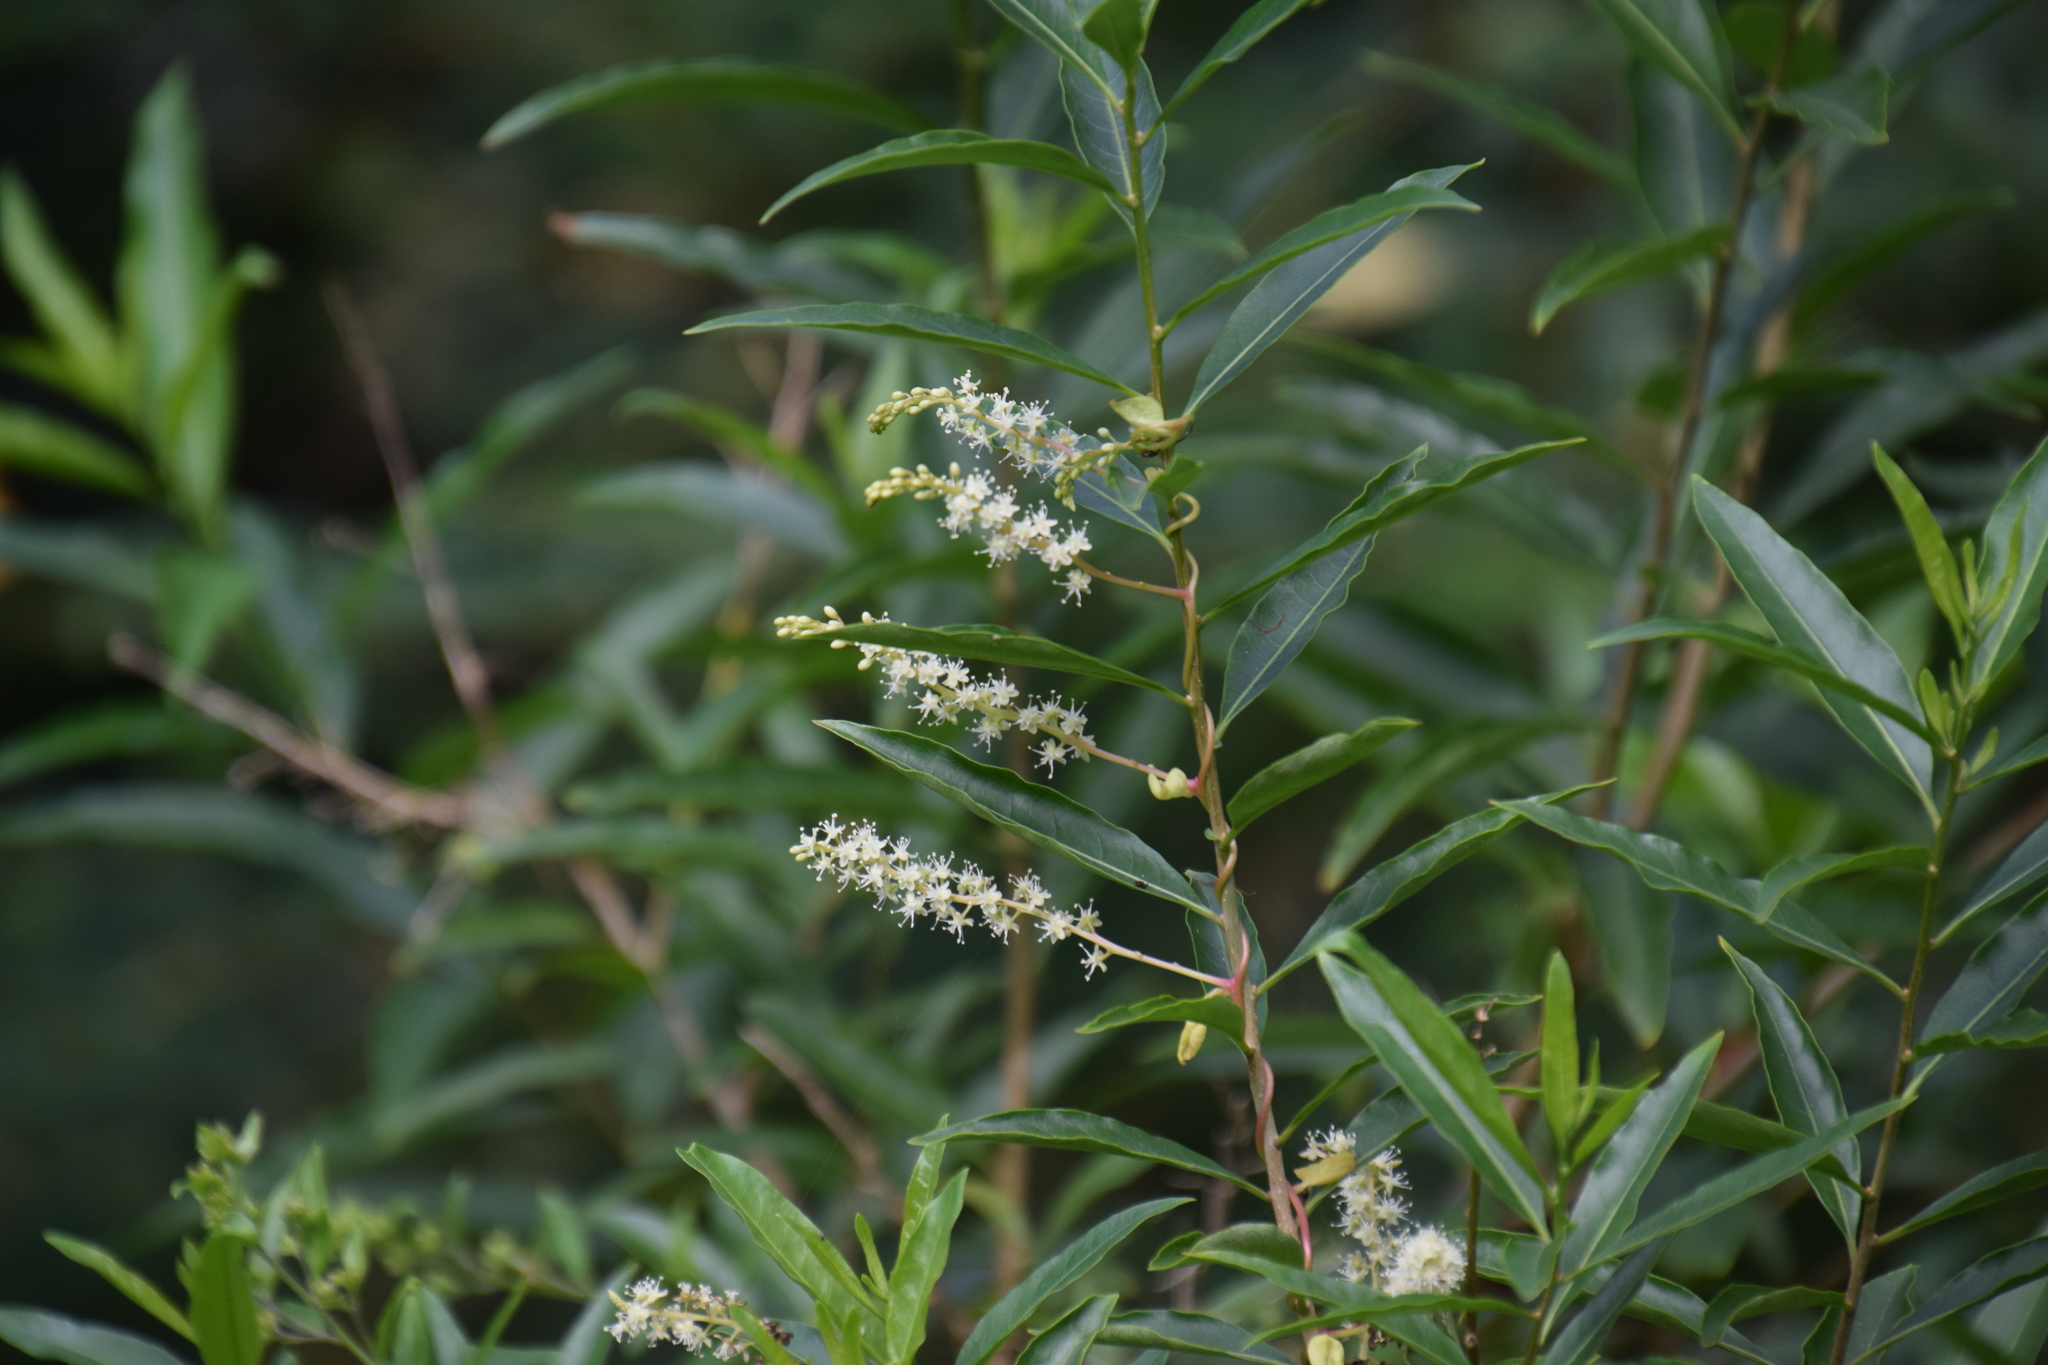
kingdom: Plantae
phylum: Tracheophyta
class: Magnoliopsida
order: Caryophyllales
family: Basellaceae
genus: Anredera
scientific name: Anredera cordifolia
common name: Heartleaf madeiravine
